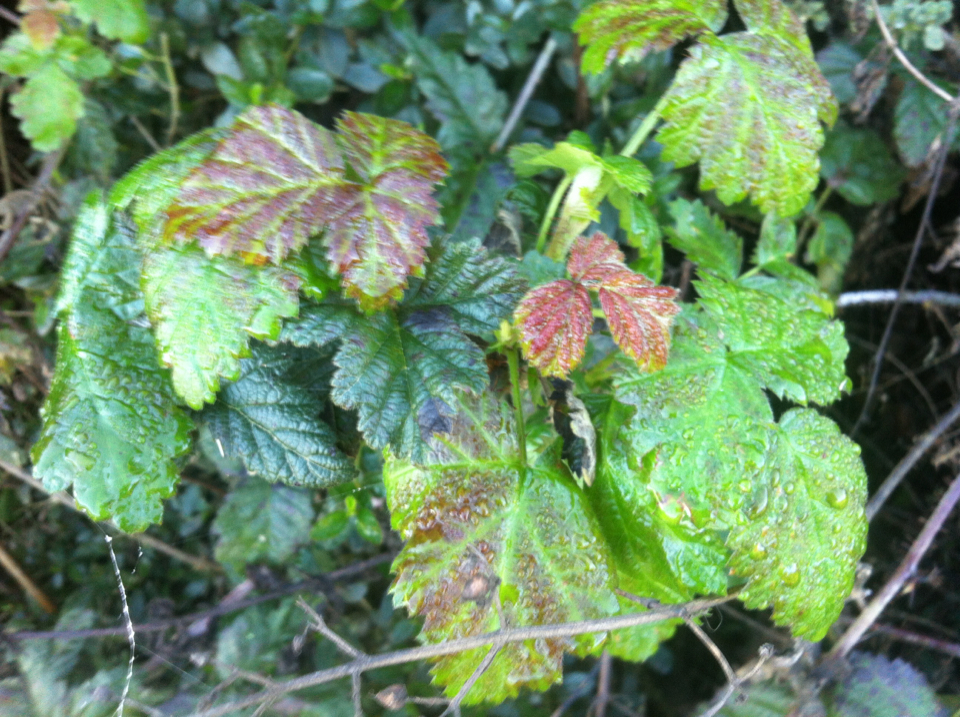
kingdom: Plantae
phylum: Tracheophyta
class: Magnoliopsida
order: Rosales
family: Rosaceae
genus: Rubus
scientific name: Rubus ursinus
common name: Pacific blackberry
